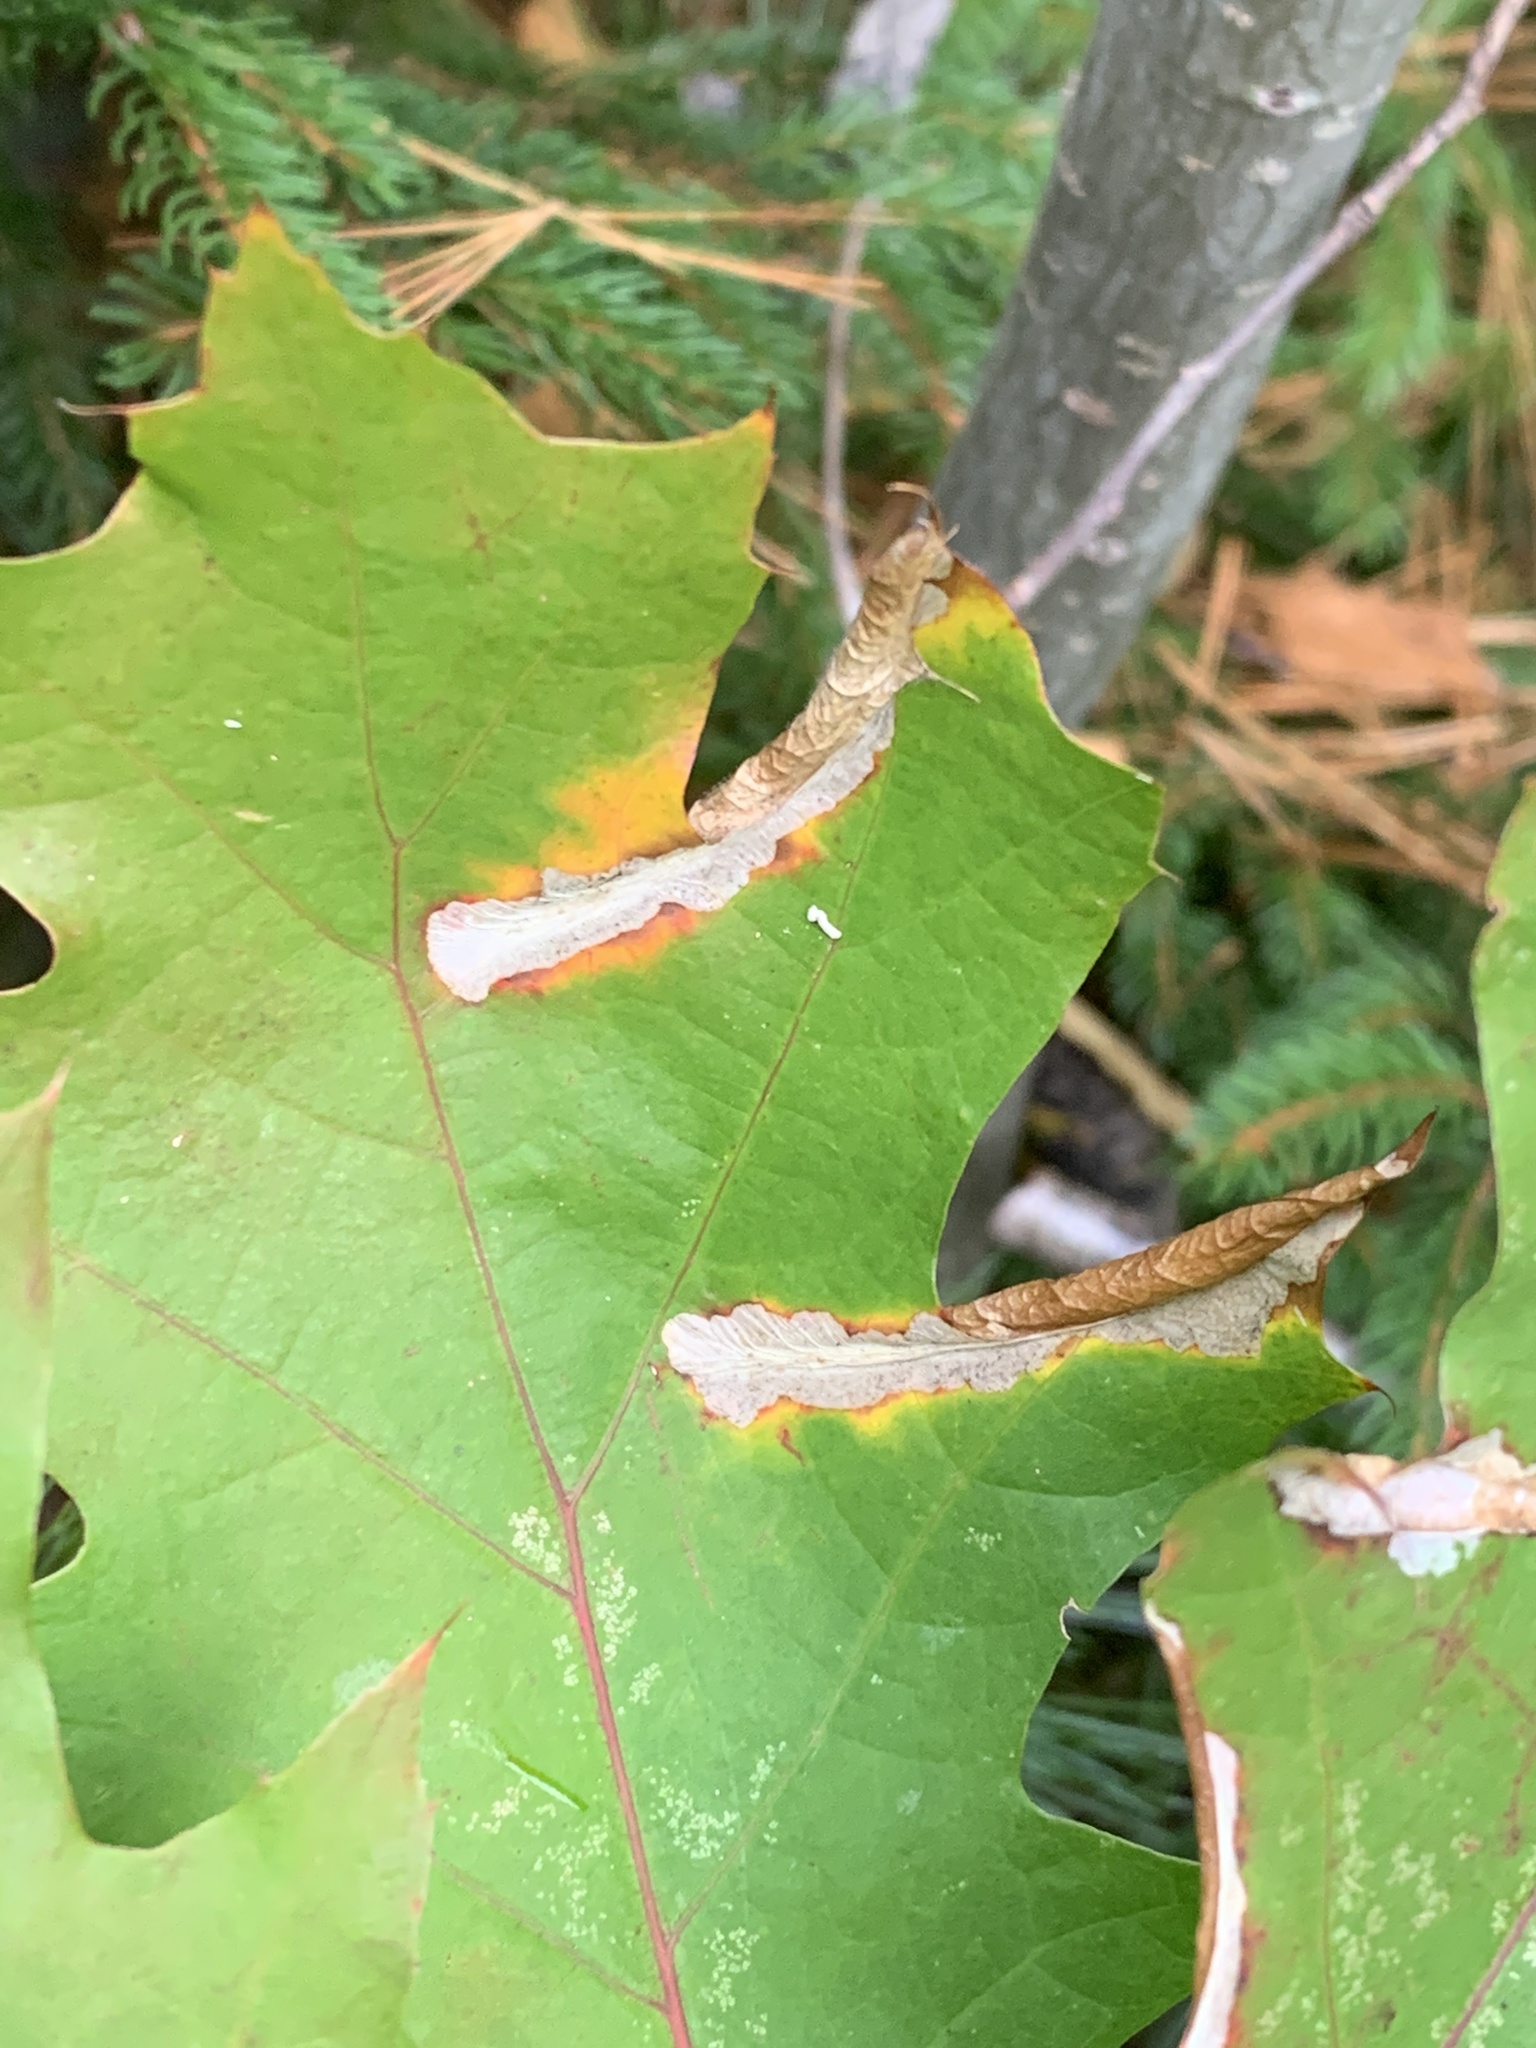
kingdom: Animalia
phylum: Arthropoda
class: Insecta
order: Lepidoptera
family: Tischeriidae
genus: Coptotriche
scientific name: Coptotriche citrinipennella
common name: The golden sweeper
